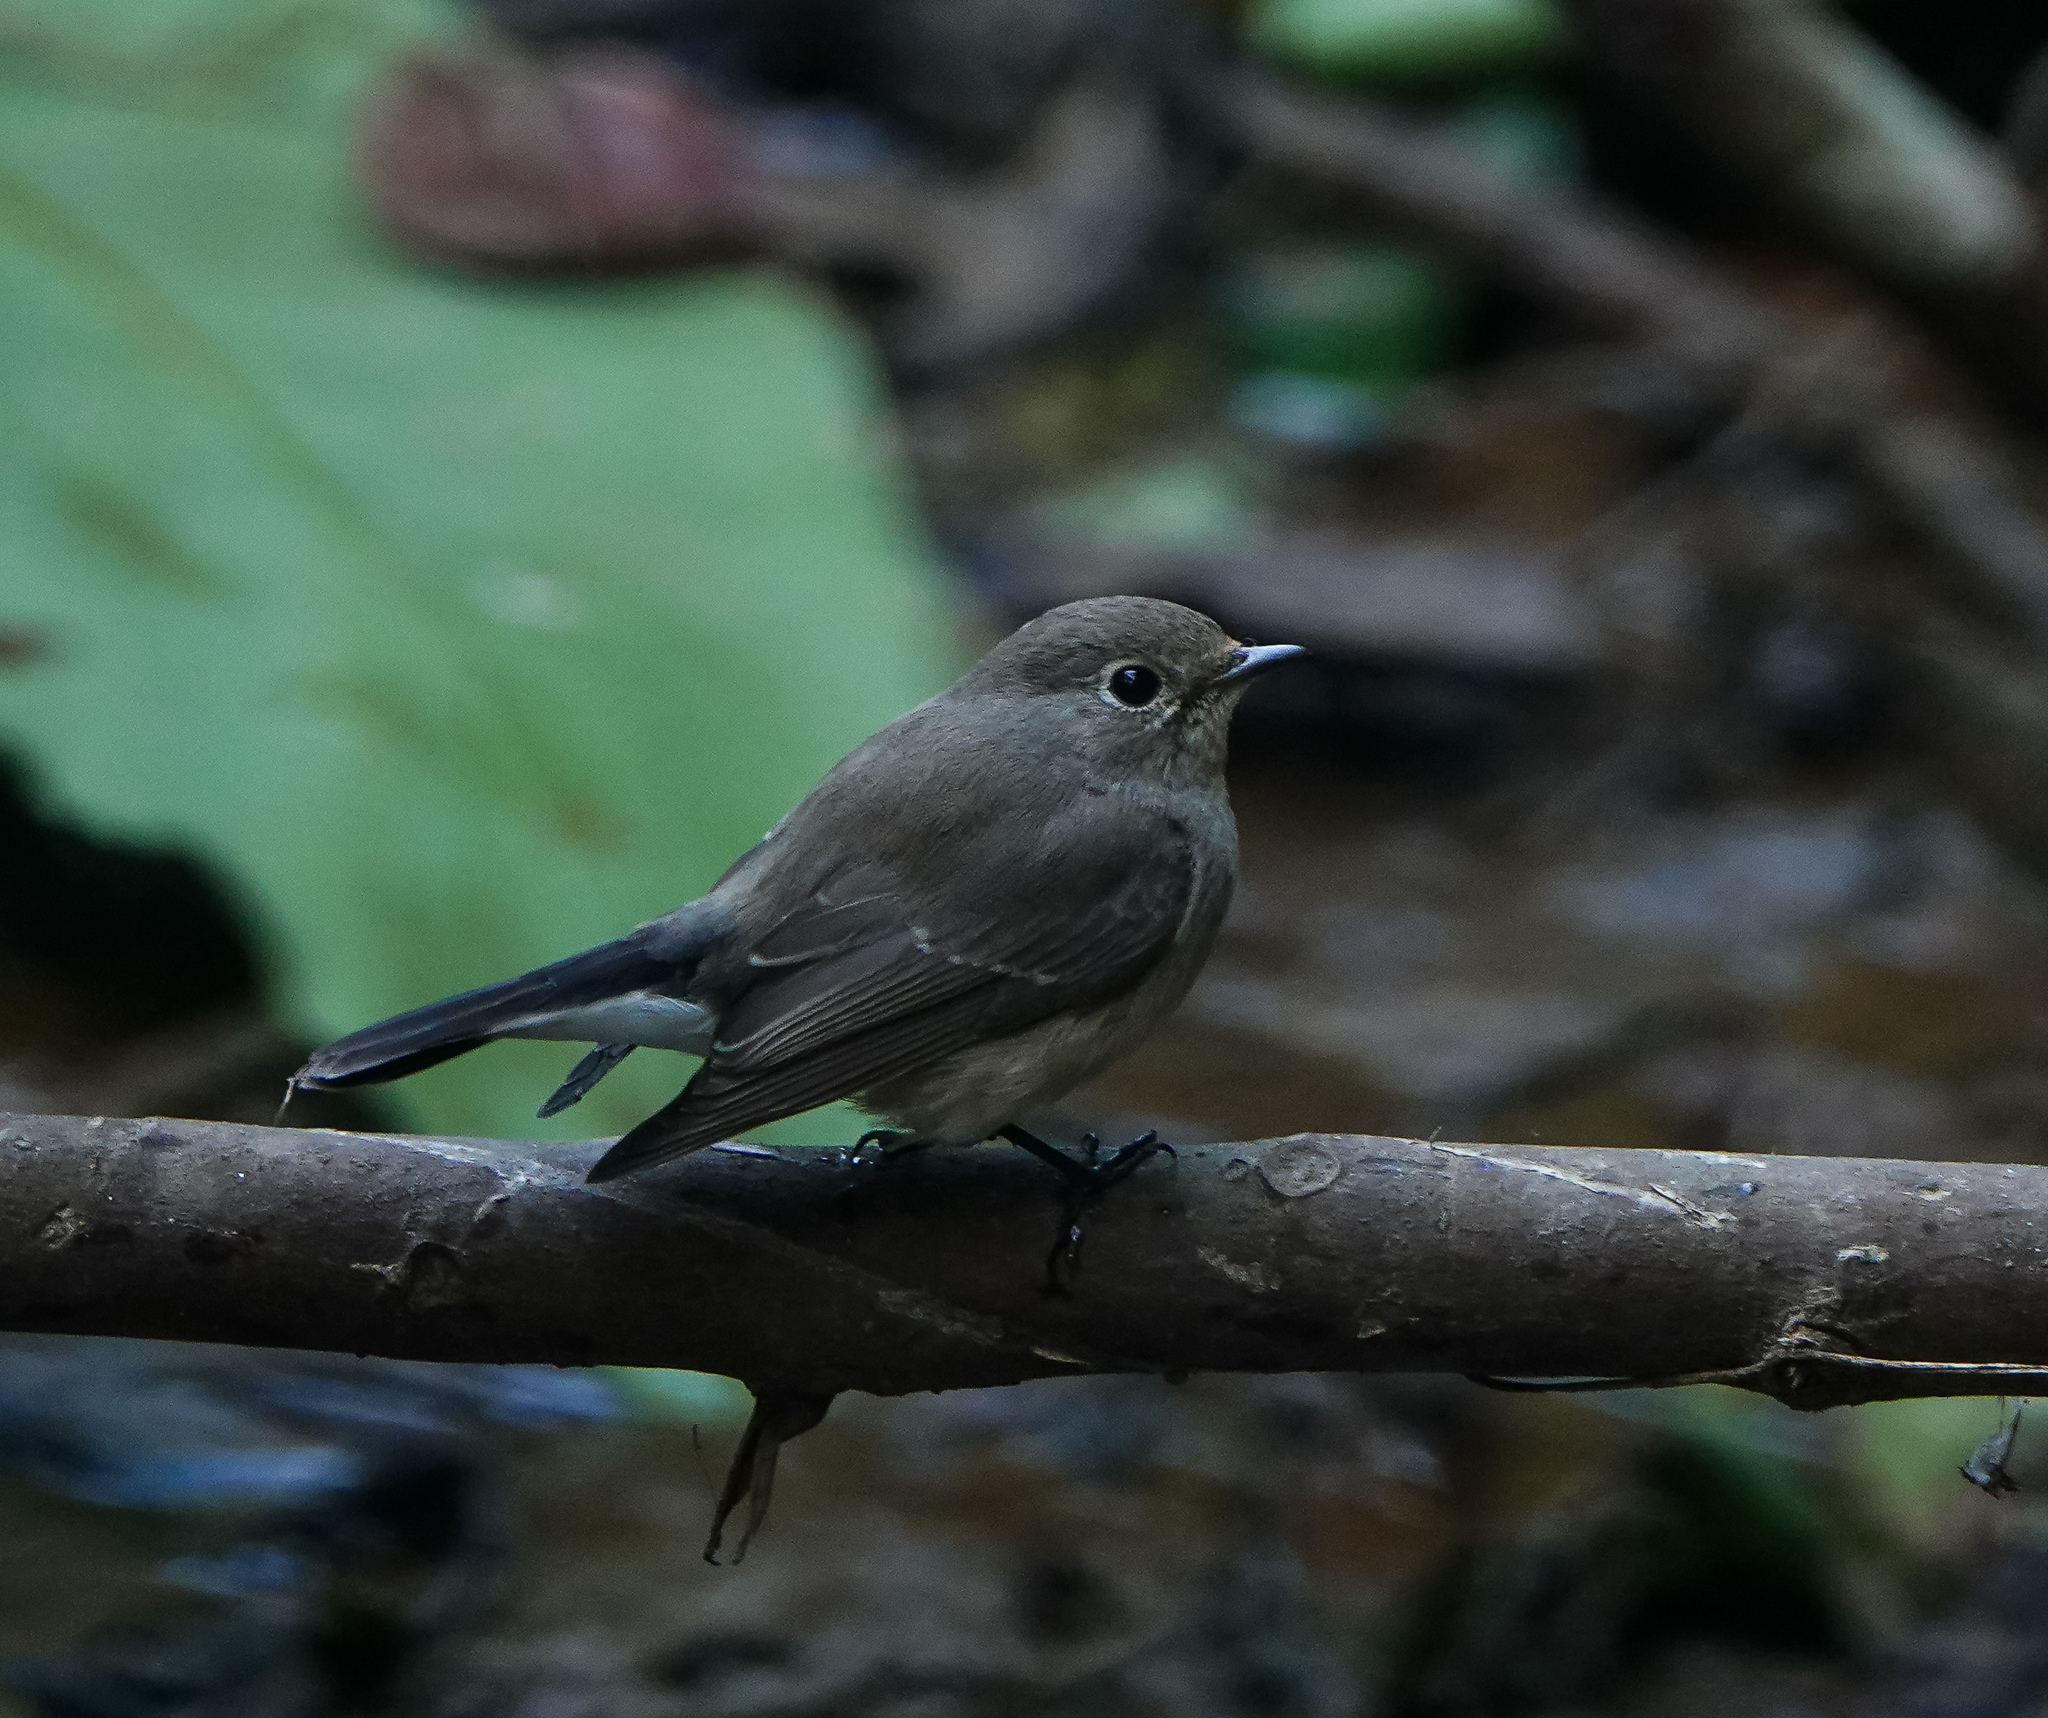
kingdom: Animalia
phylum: Chordata
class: Aves
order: Passeriformes
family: Muscicapidae
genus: Ficedula
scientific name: Ficedula albicilla
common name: Taiga flycatcher
